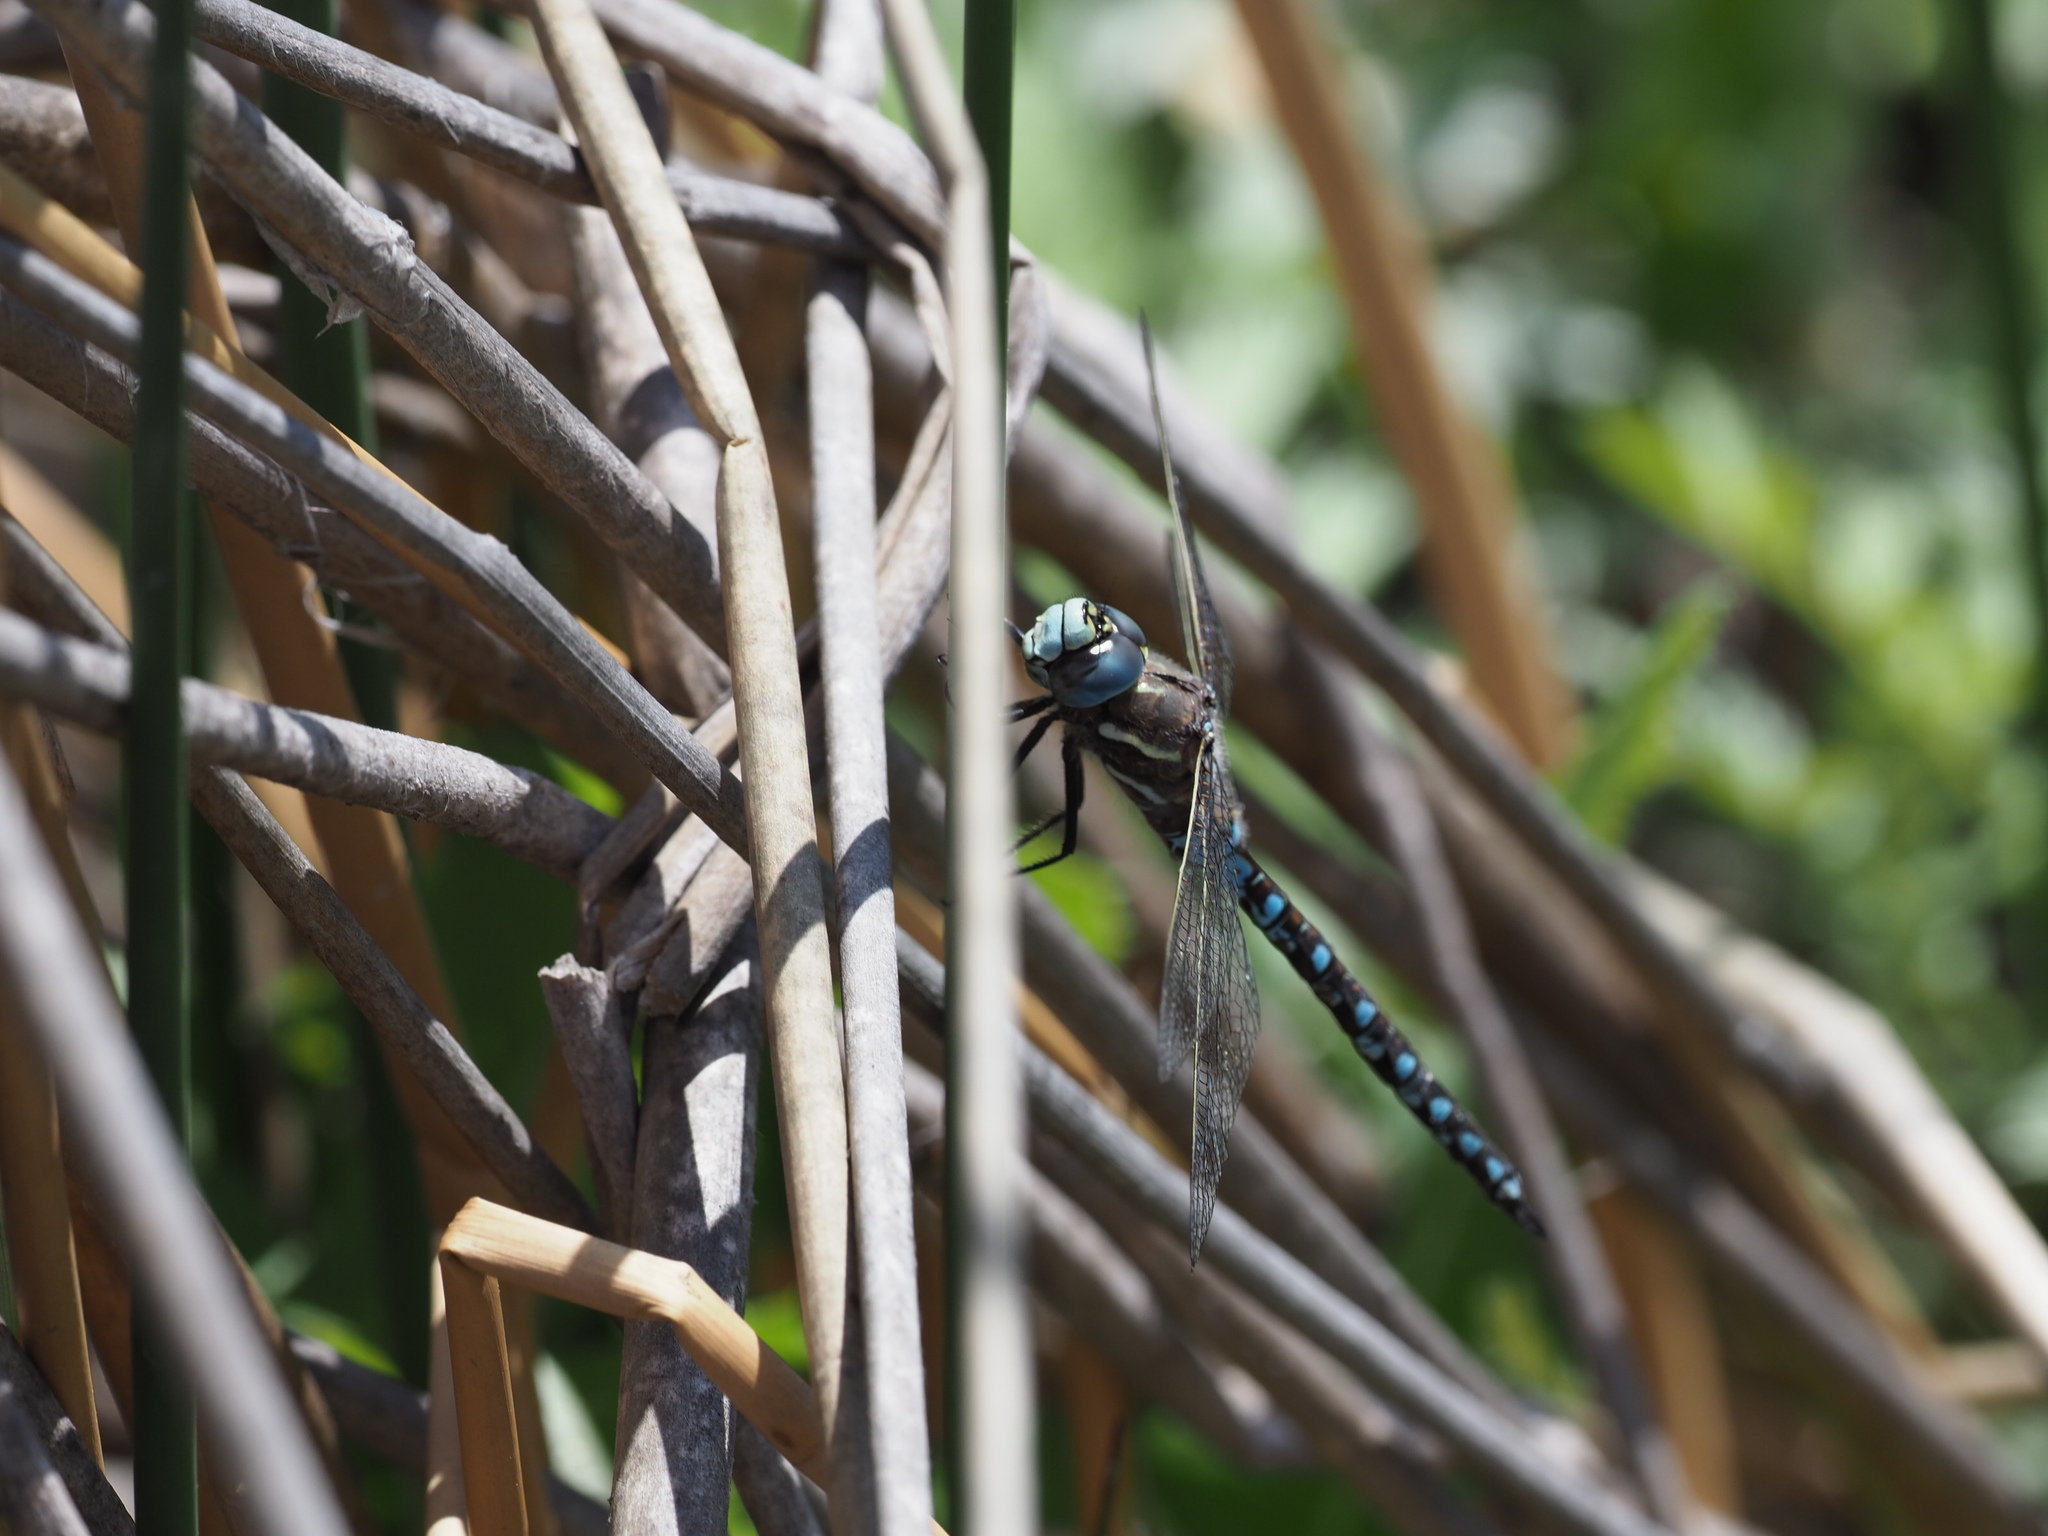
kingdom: Animalia
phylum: Arthropoda
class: Insecta
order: Odonata
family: Aeshnidae
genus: Rhionaeschna
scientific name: Rhionaeschna californica
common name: California darner
